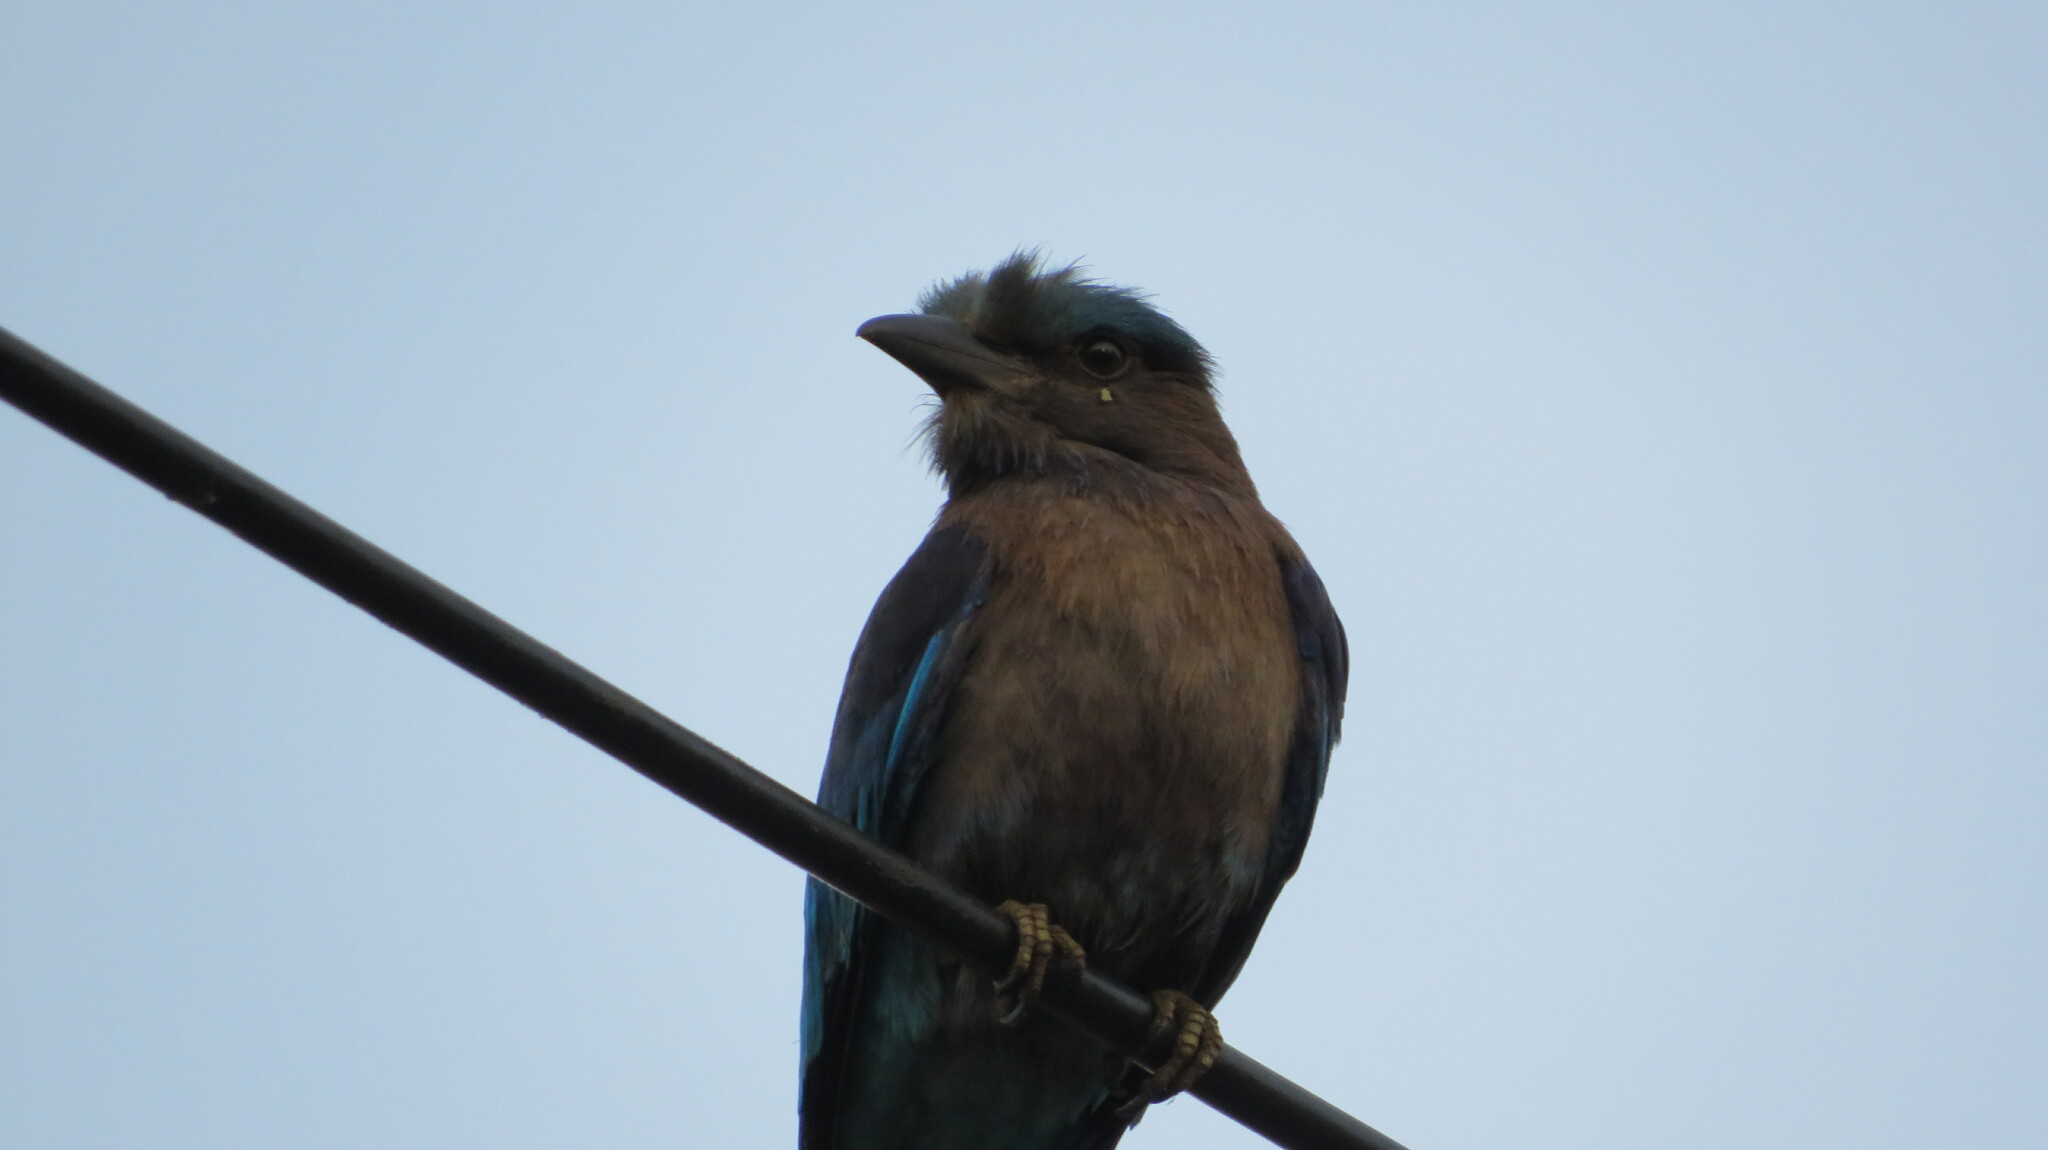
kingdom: Animalia
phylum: Chordata
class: Aves
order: Coraciiformes
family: Coraciidae
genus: Coracias
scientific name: Coracias affinis
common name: Indochinese roller
